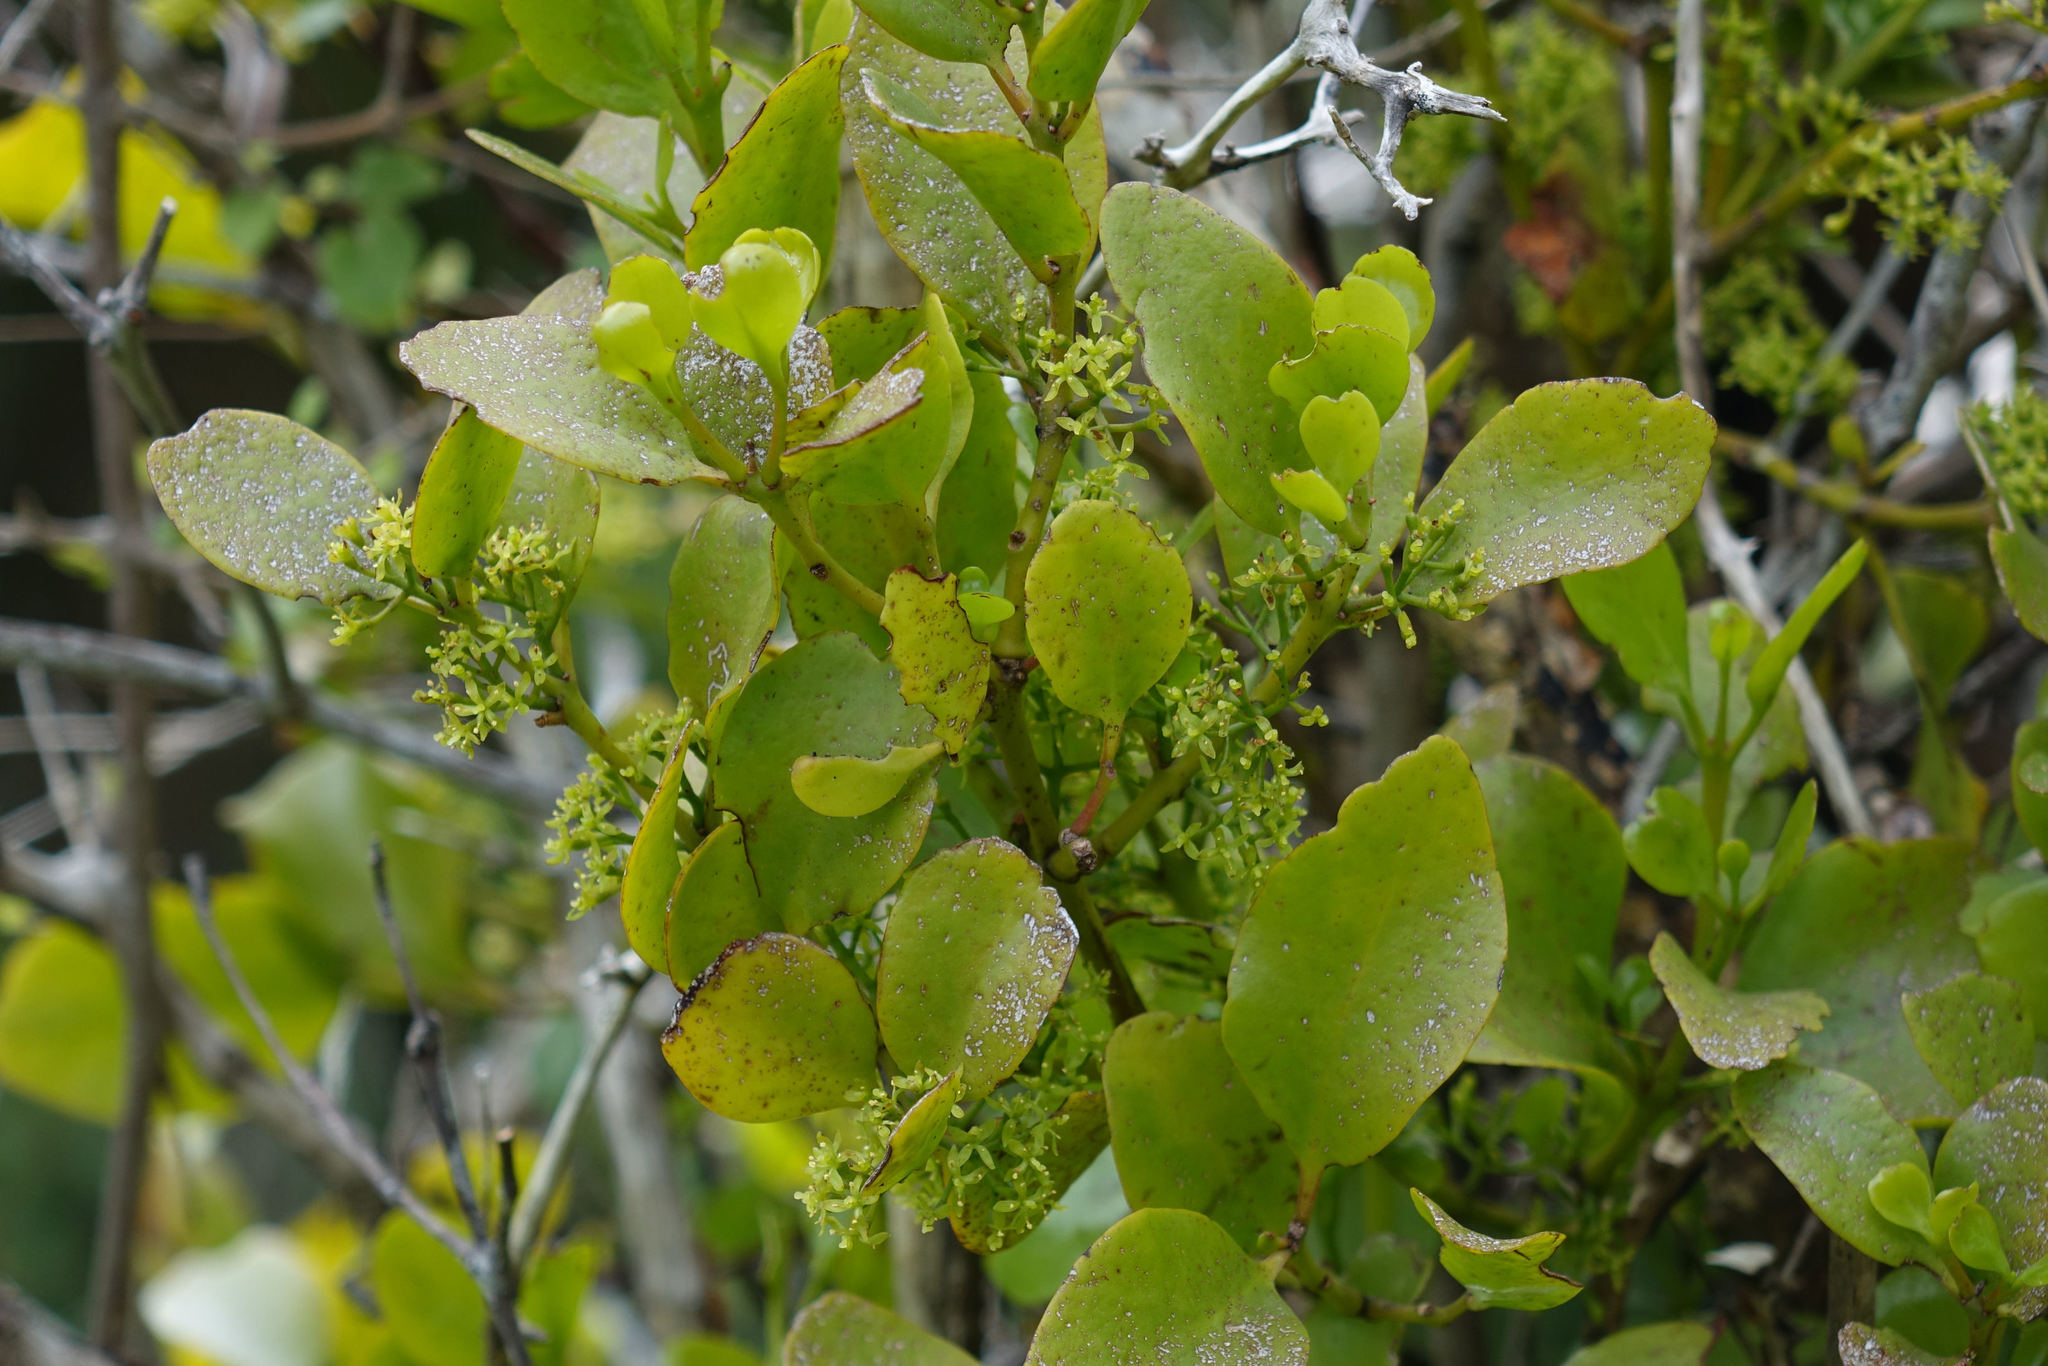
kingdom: Plantae
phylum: Tracheophyta
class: Magnoliopsida
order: Santalales
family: Loranthaceae
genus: Ileostylus
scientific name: Ileostylus micranthus
